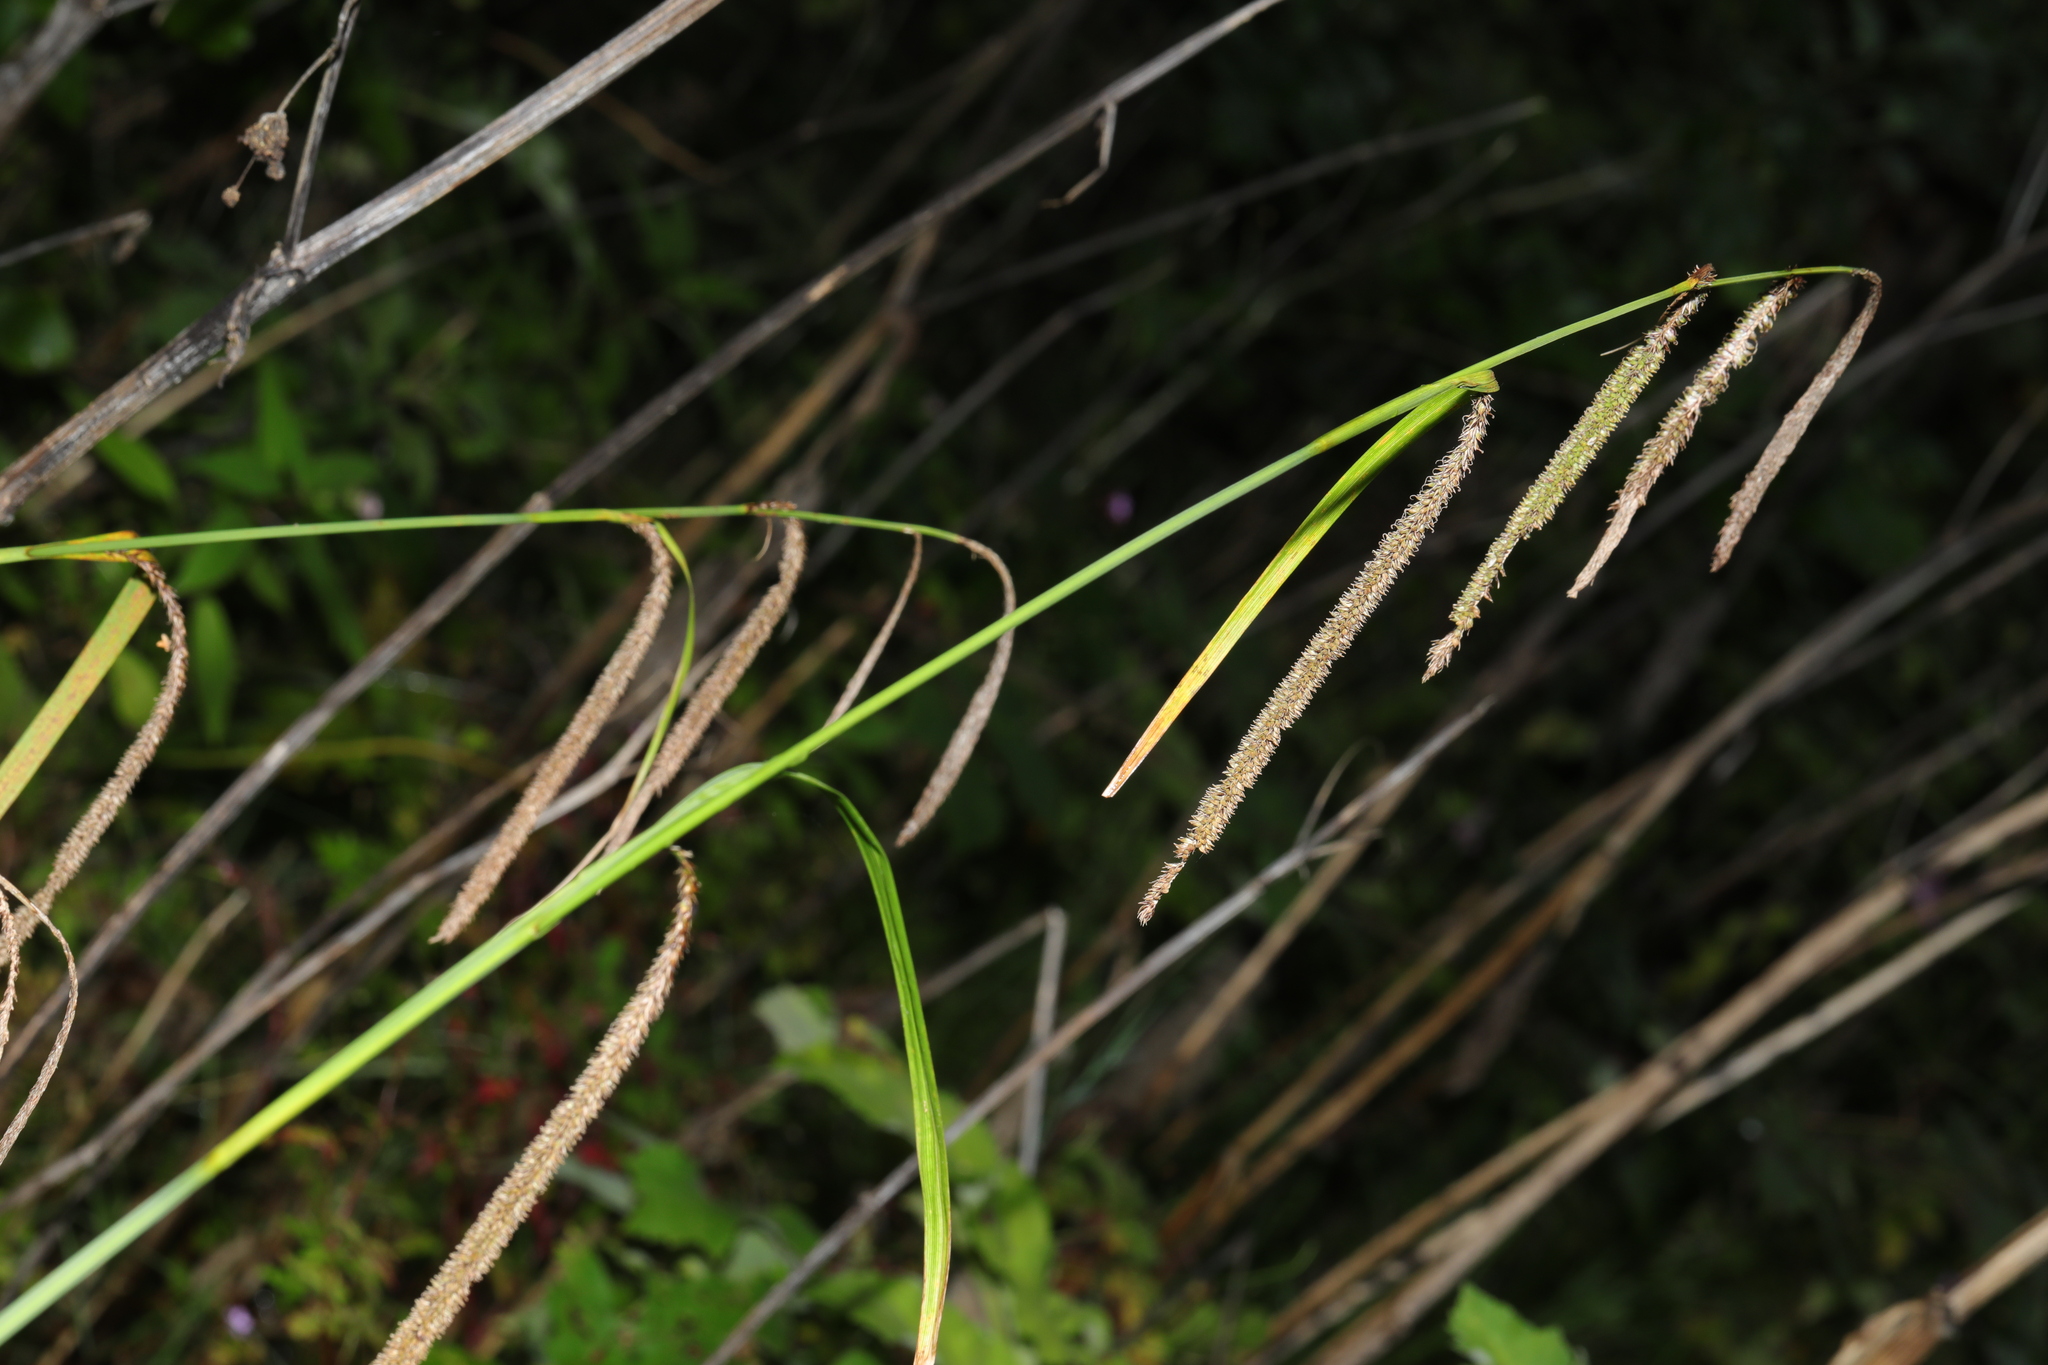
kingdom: Plantae
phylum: Tracheophyta
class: Liliopsida
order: Poales
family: Cyperaceae
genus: Carex
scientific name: Carex pendula
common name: Pendulous sedge
